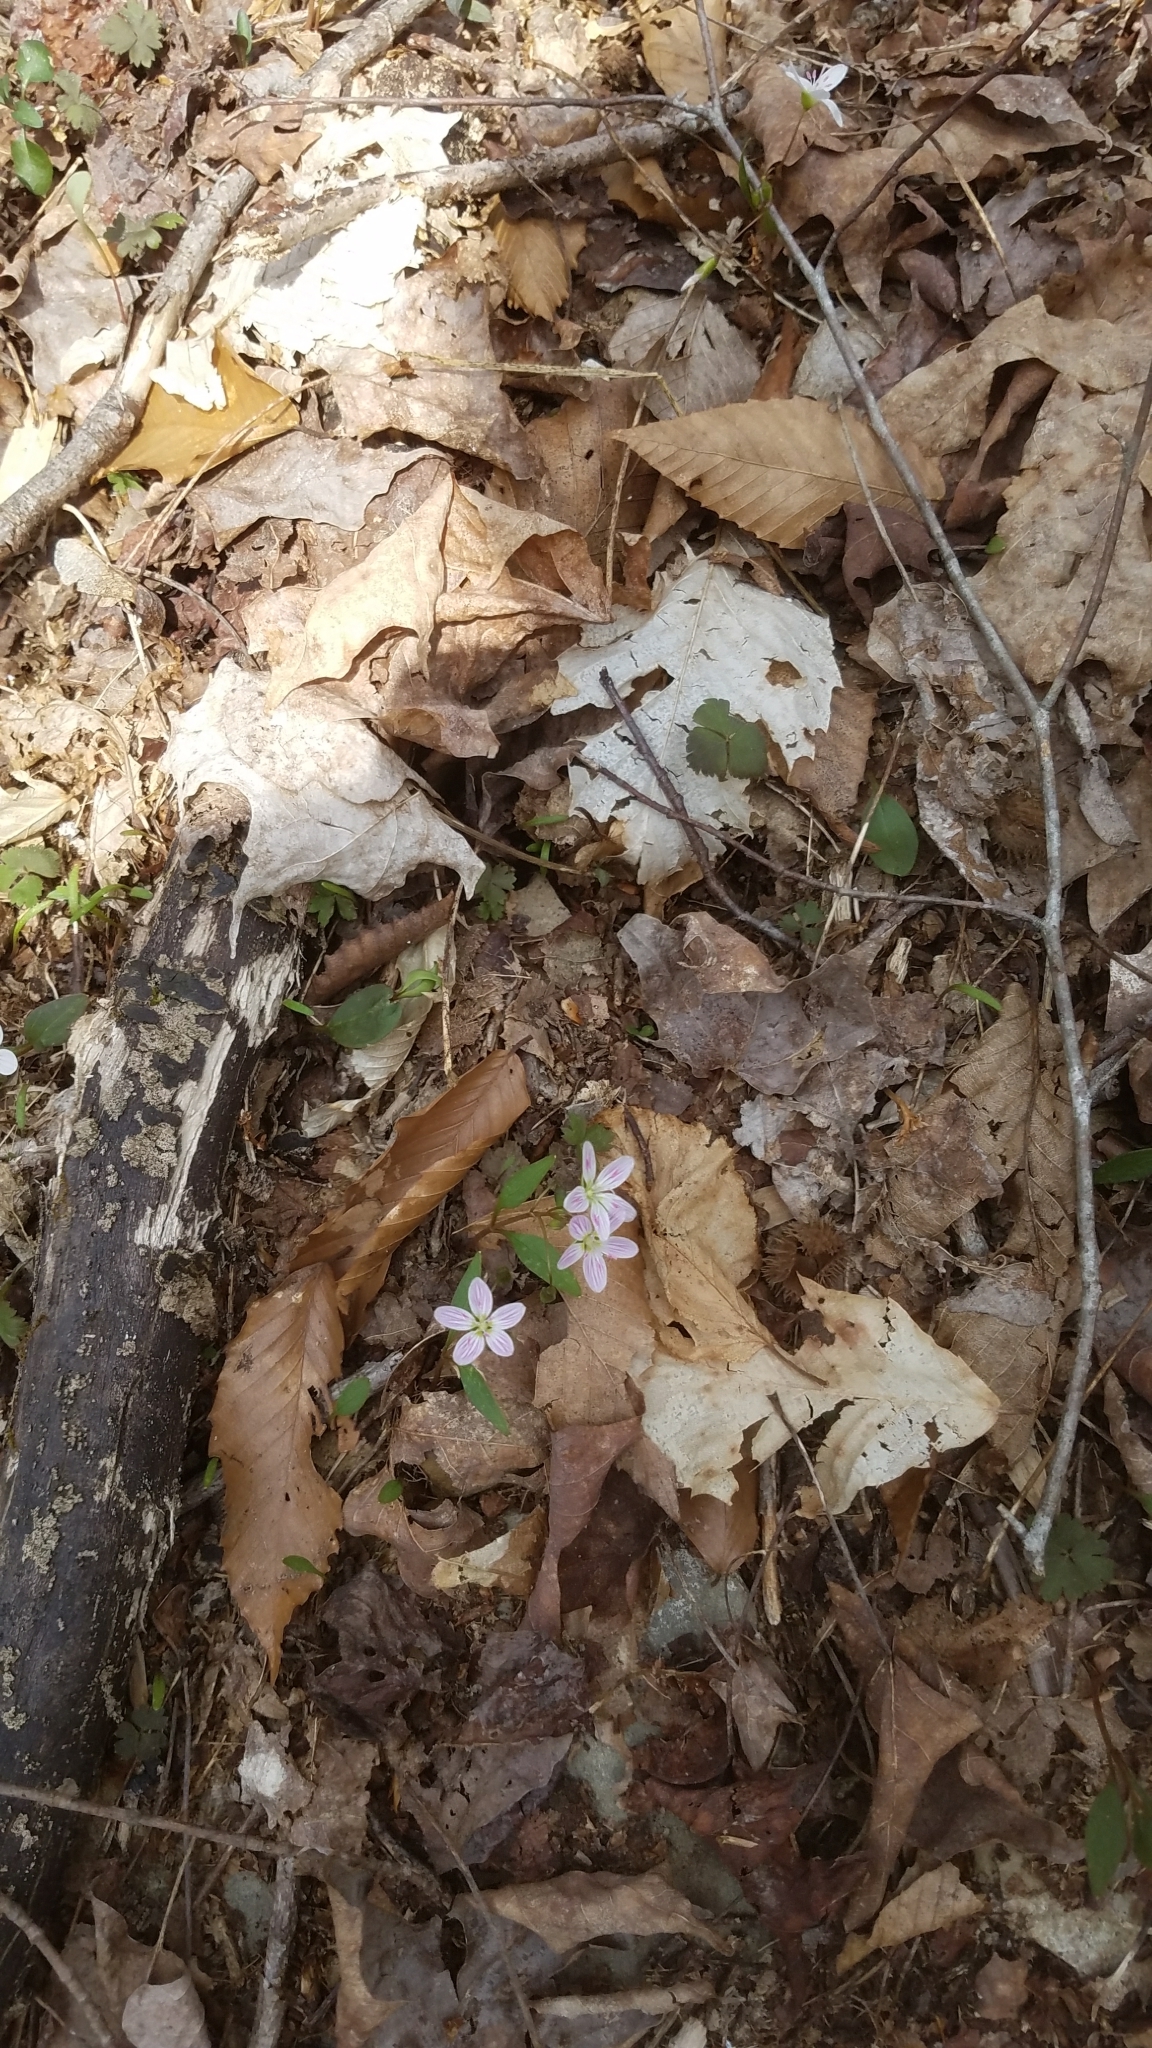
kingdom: Plantae
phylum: Tracheophyta
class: Magnoliopsida
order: Caryophyllales
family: Montiaceae
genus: Claytonia
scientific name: Claytonia caroliniana
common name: Carolina spring beauty
